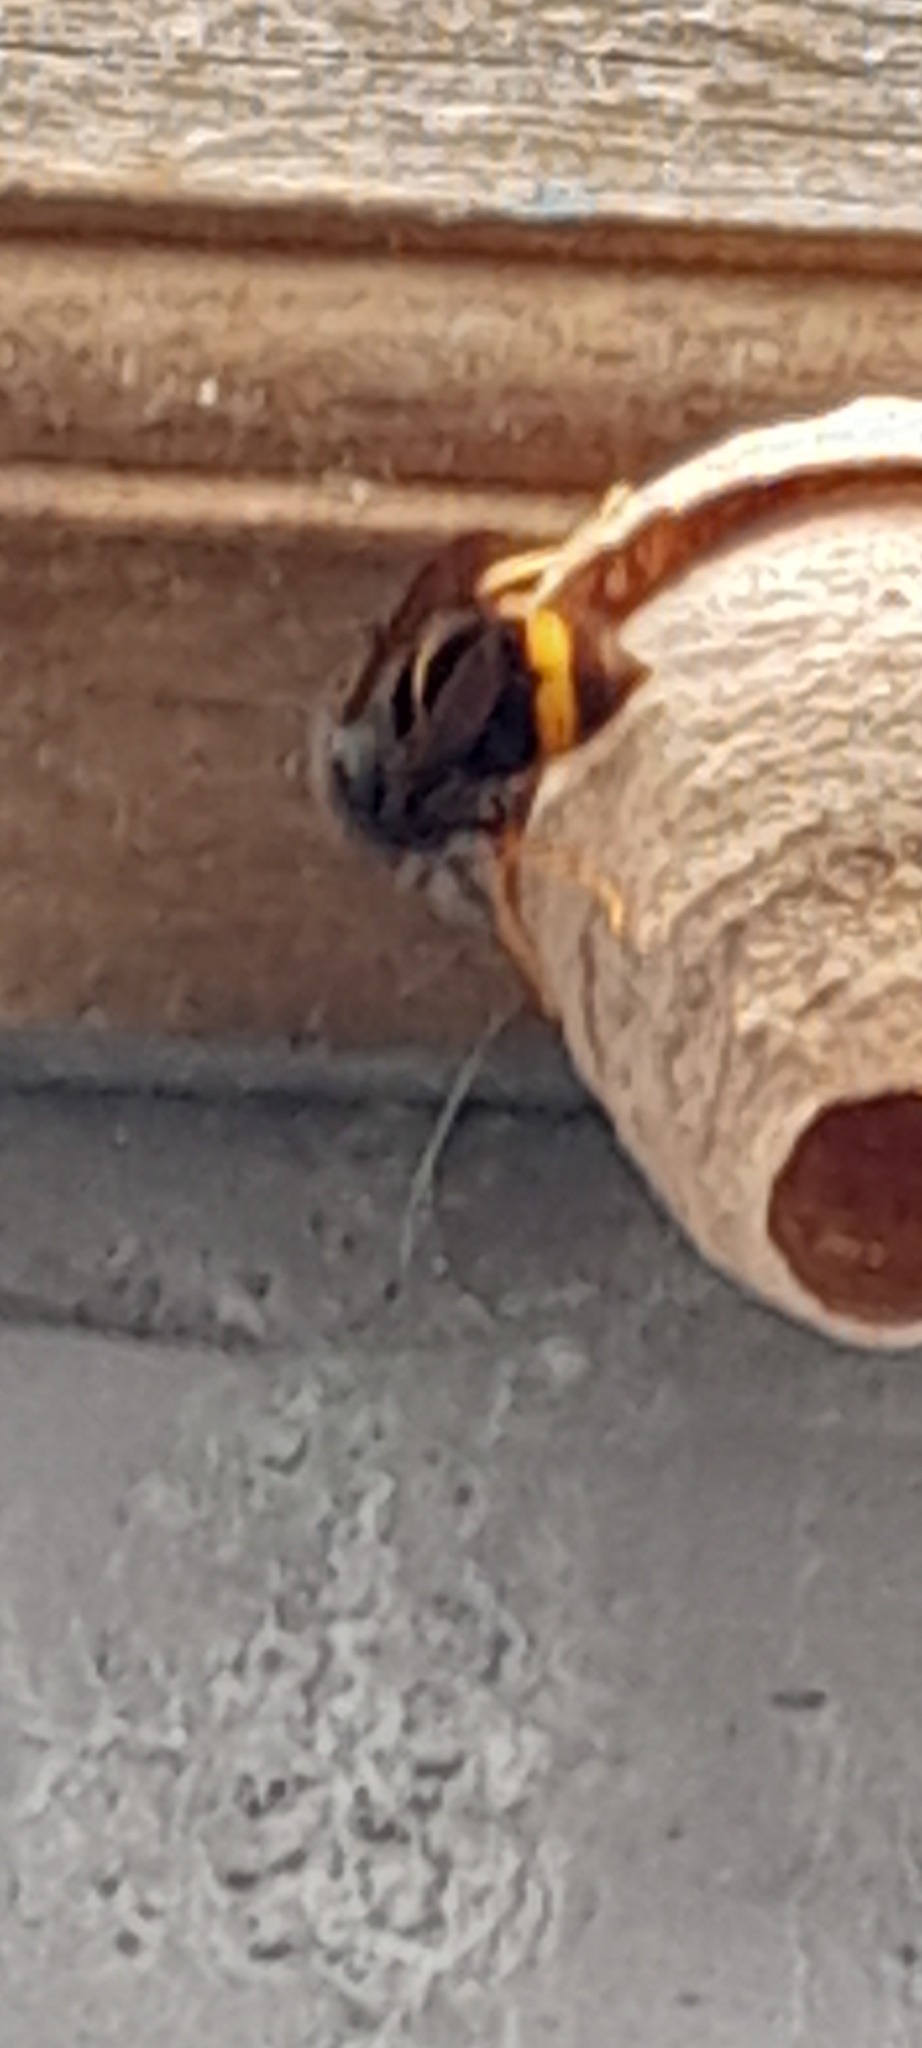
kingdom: Animalia
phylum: Arthropoda
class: Insecta
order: Hymenoptera
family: Vespidae
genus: Vespa
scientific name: Vespa velutina
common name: Asian hornet
